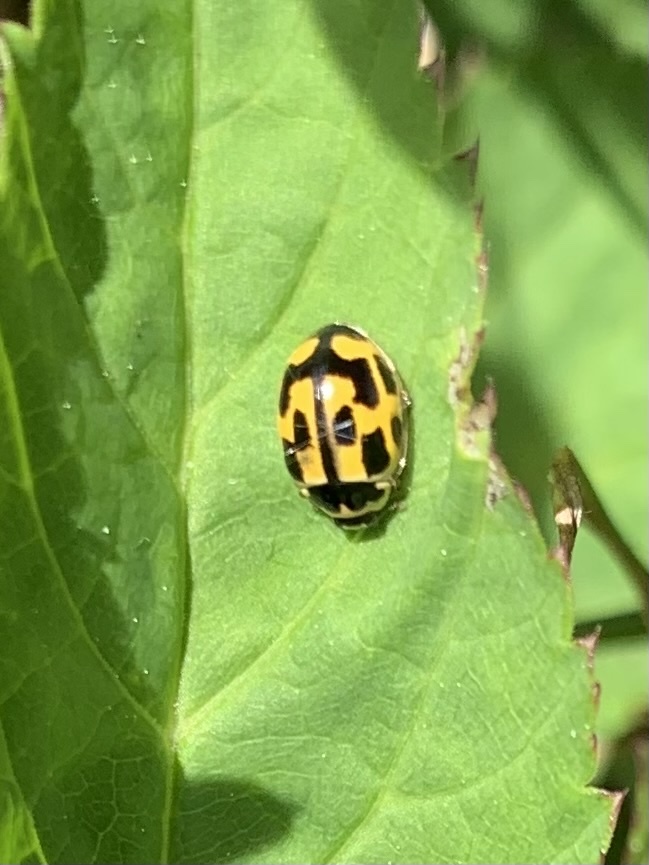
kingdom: Animalia
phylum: Arthropoda
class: Insecta
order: Coleoptera
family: Coccinellidae
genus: Propylaea
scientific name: Propylaea quatuordecimpunctata
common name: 14-spotted ladybird beetle
